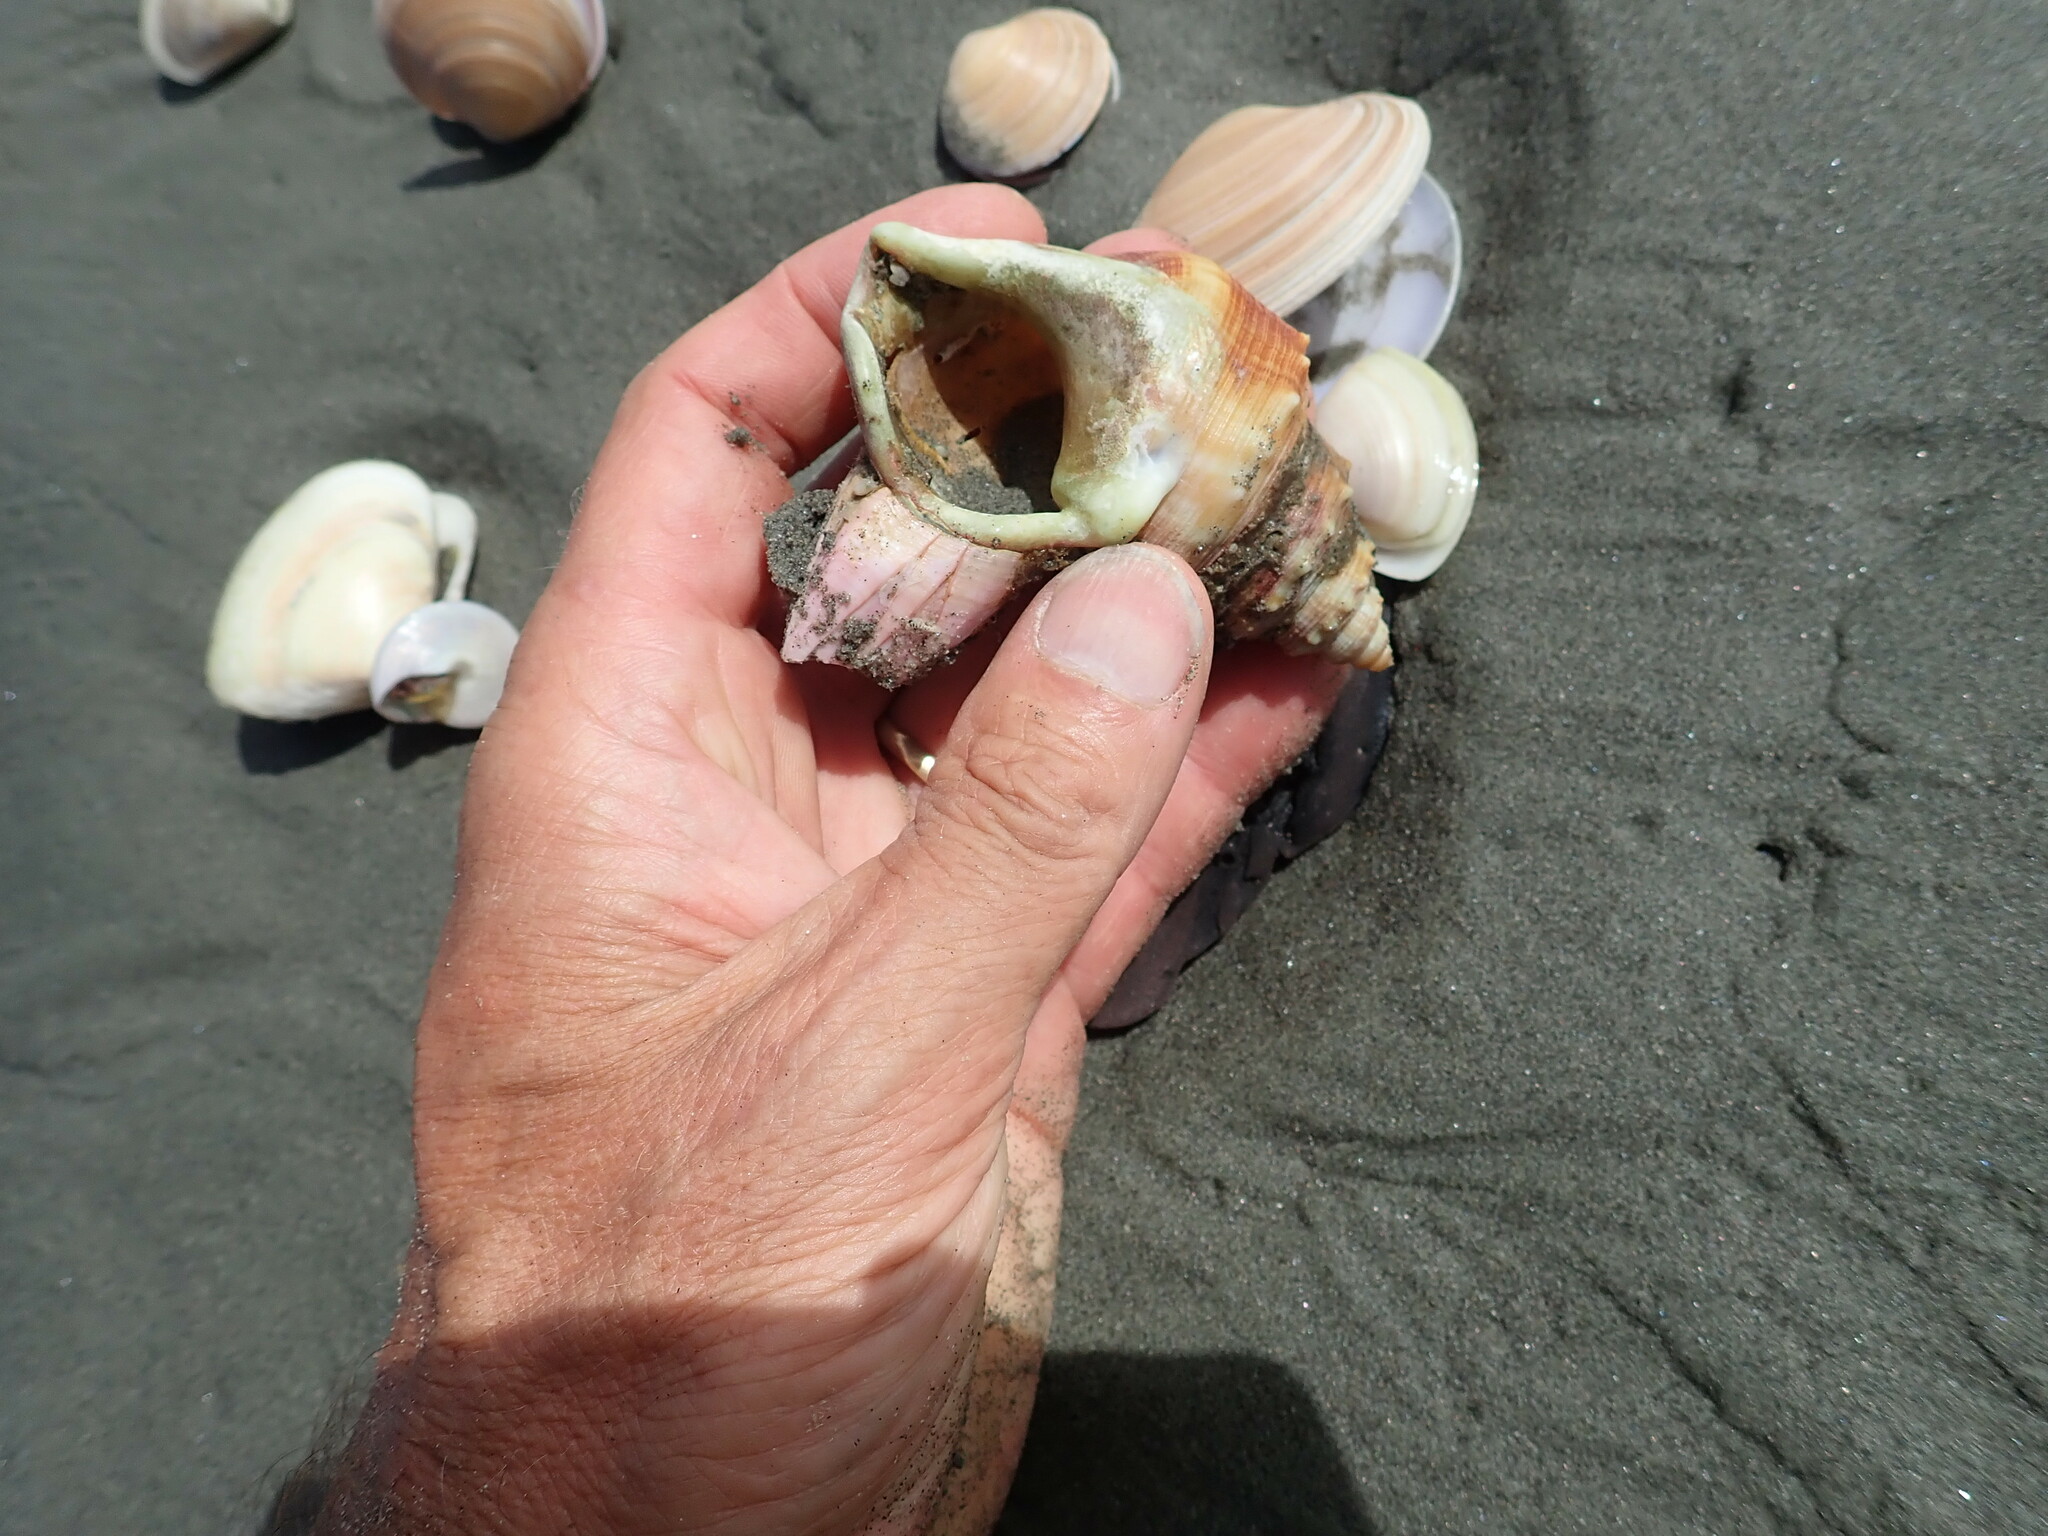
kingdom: Animalia
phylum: Mollusca
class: Gastropoda
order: Littorinimorpha
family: Struthiolariidae
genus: Struthiolaria
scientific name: Struthiolaria papulosa
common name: Large ostrich foot
